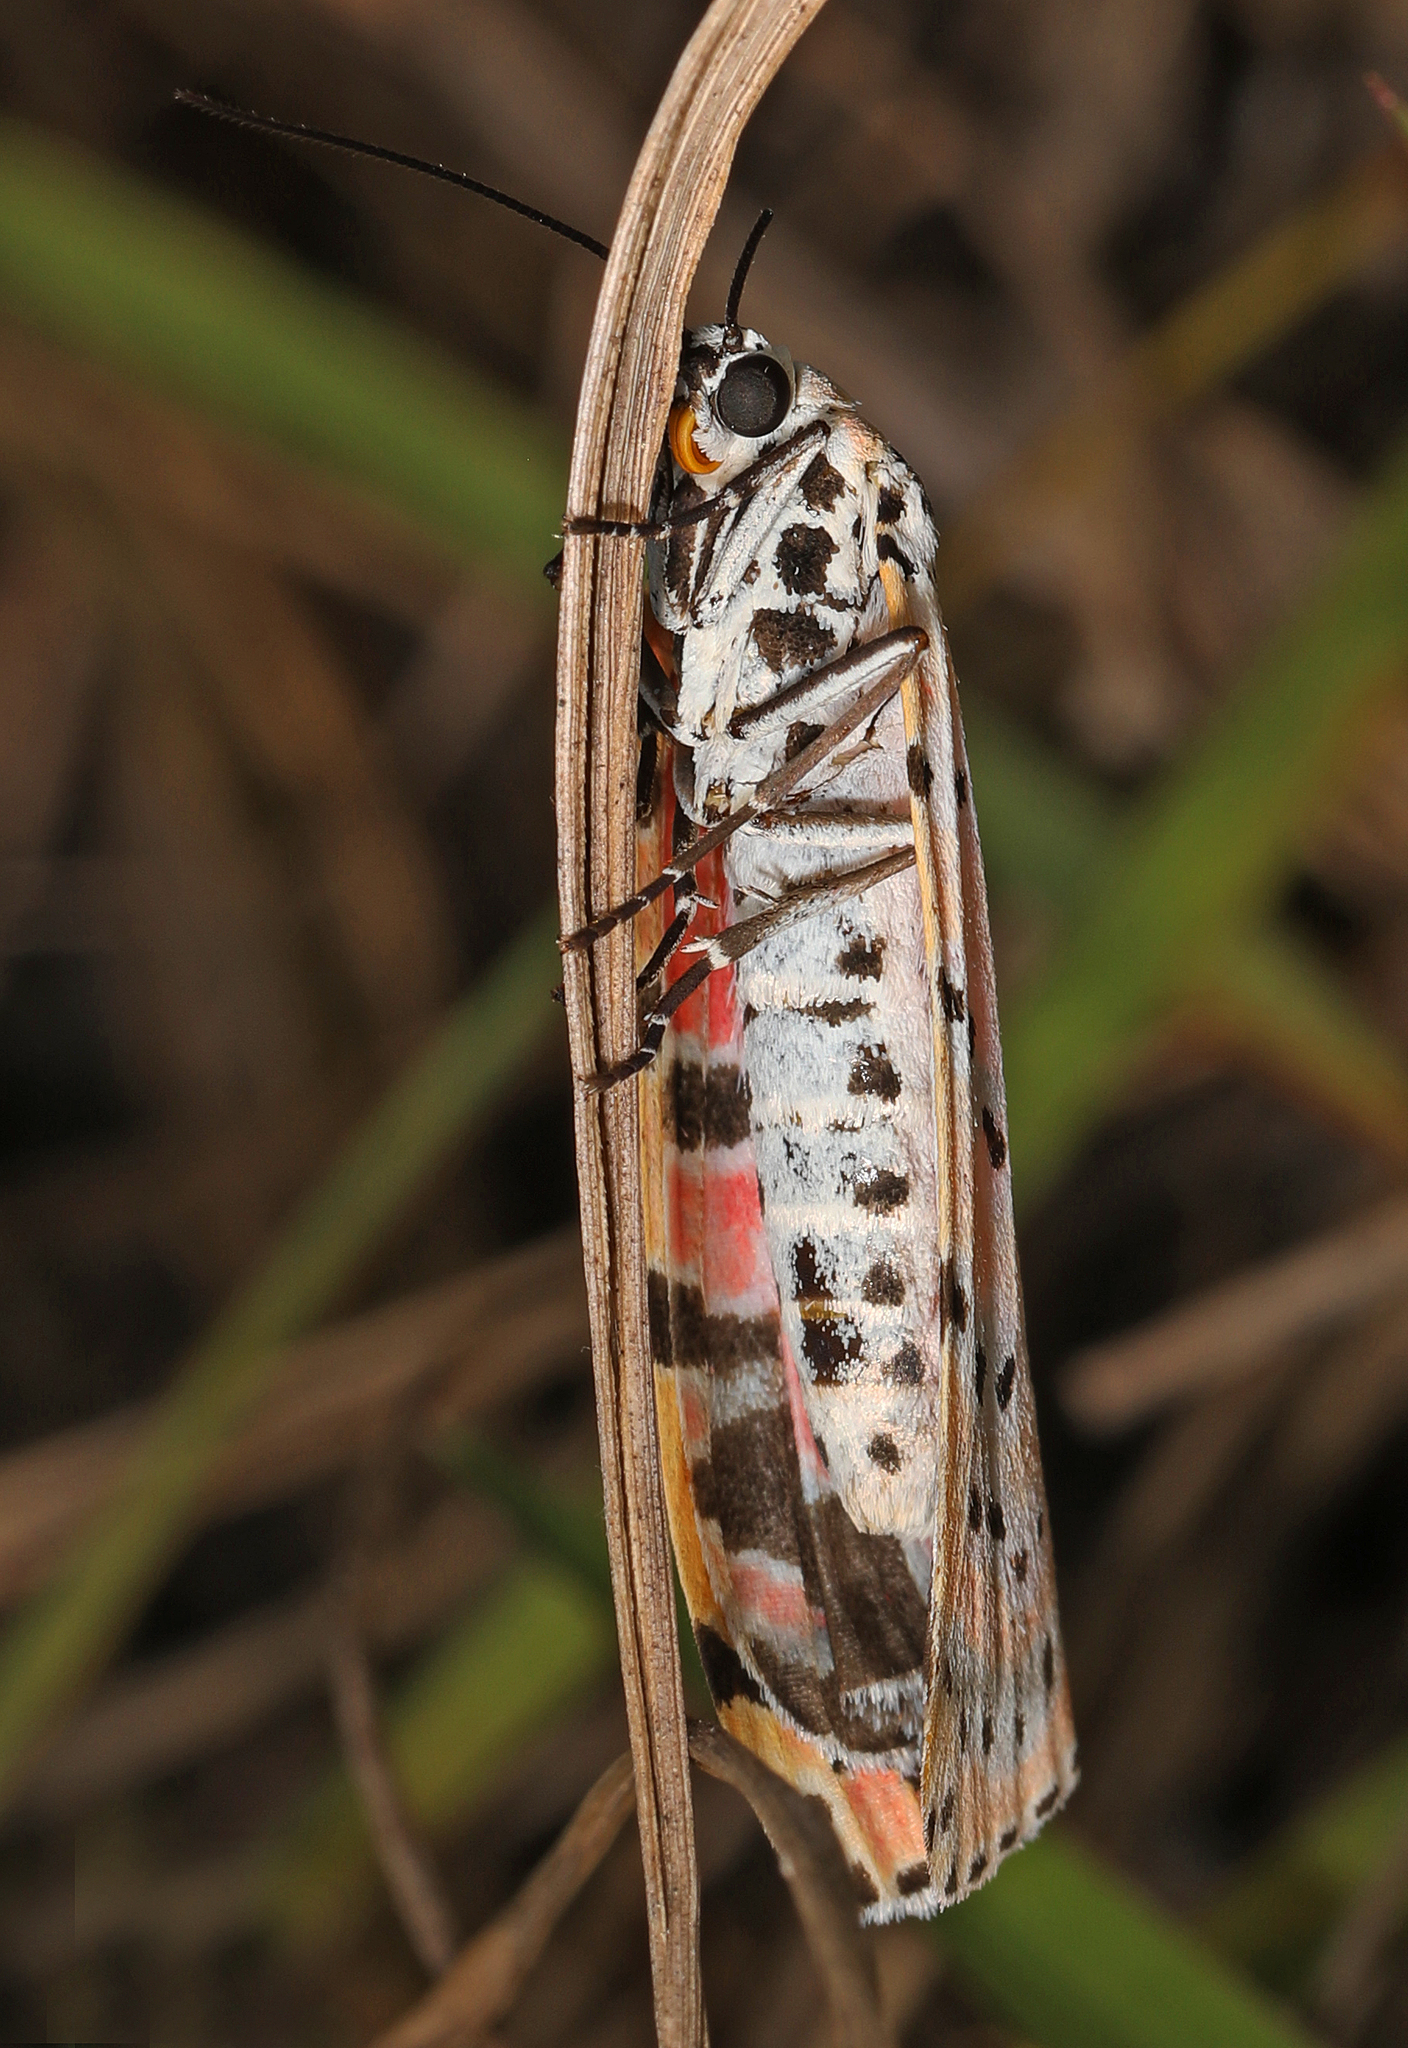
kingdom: Animalia
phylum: Arthropoda
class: Insecta
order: Lepidoptera
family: Erebidae
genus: Utetheisa
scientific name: Utetheisa ornatrix
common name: Beautiful utetheisa
